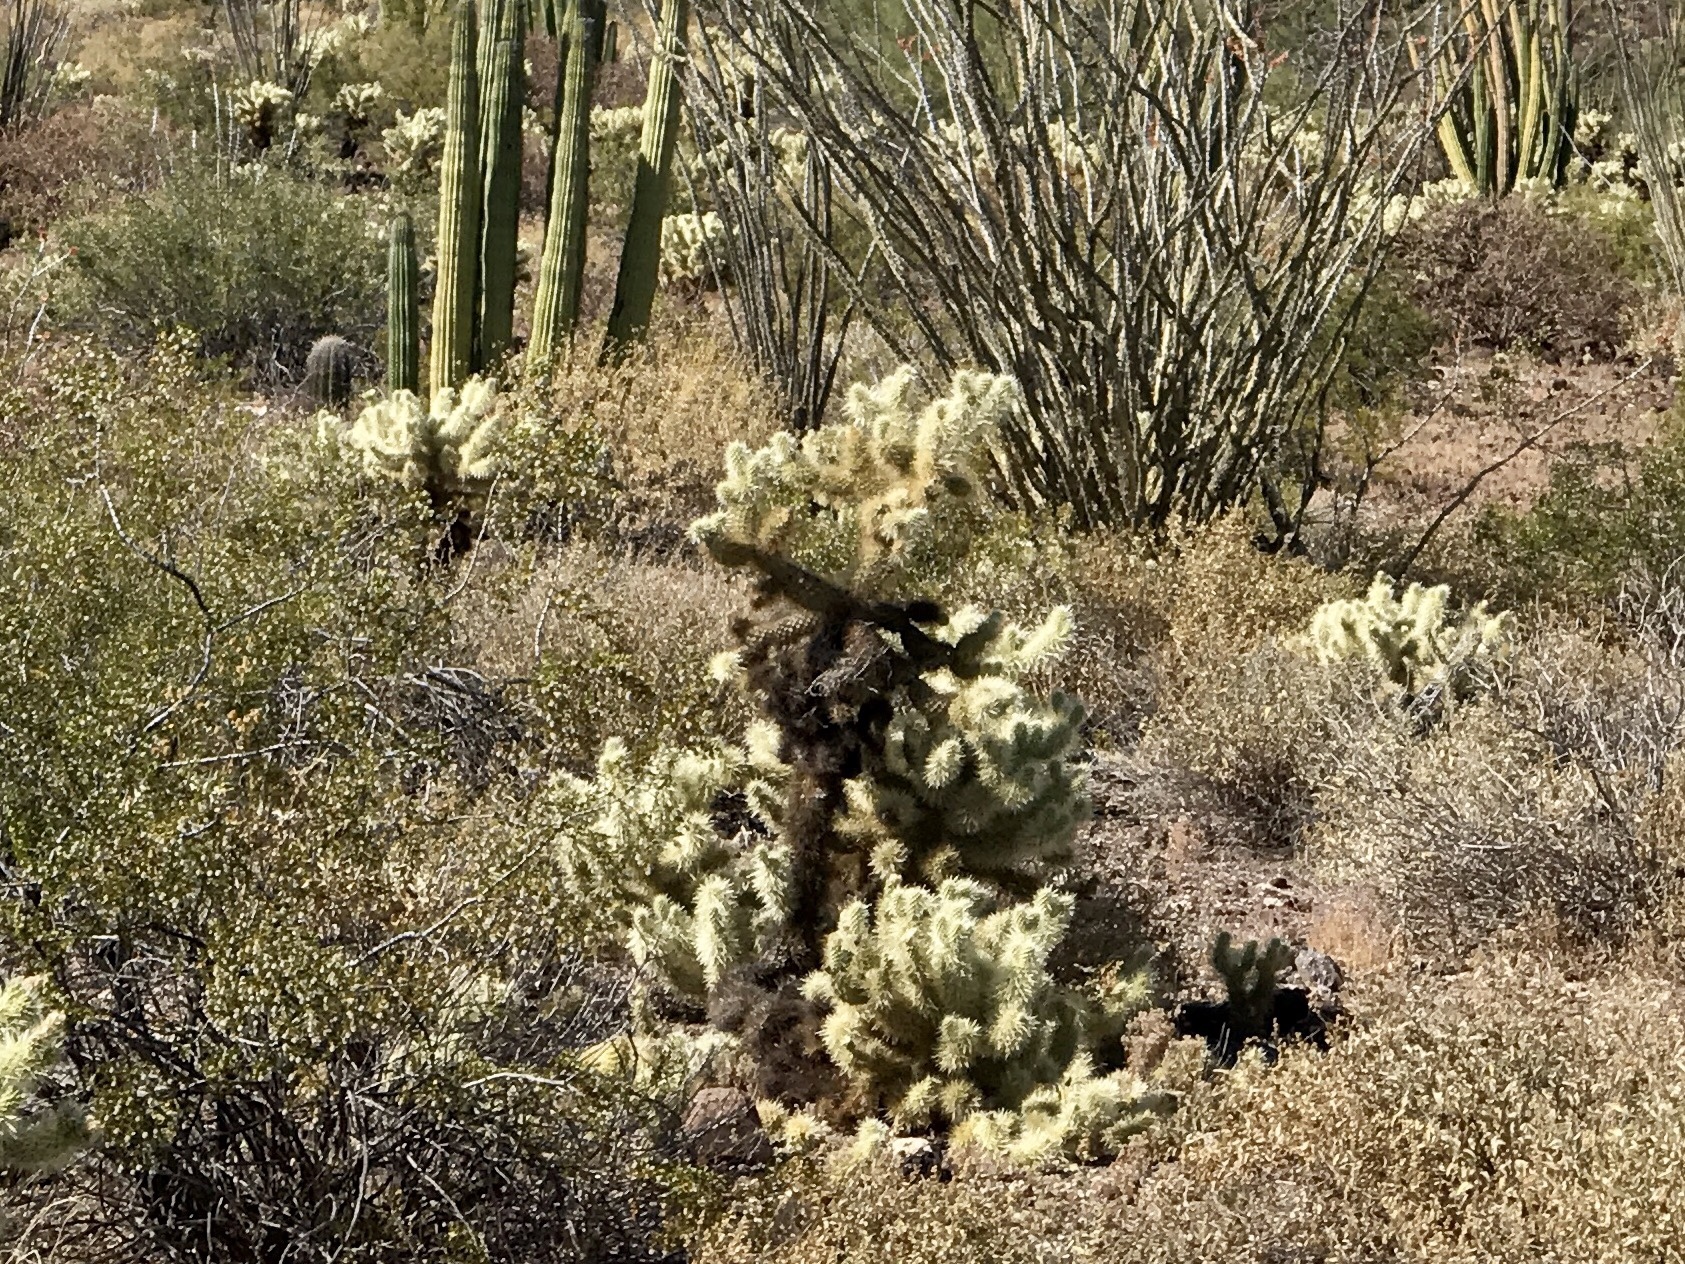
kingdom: Plantae
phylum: Tracheophyta
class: Magnoliopsida
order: Caryophyllales
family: Cactaceae
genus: Cylindropuntia
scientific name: Cylindropuntia fosbergii
